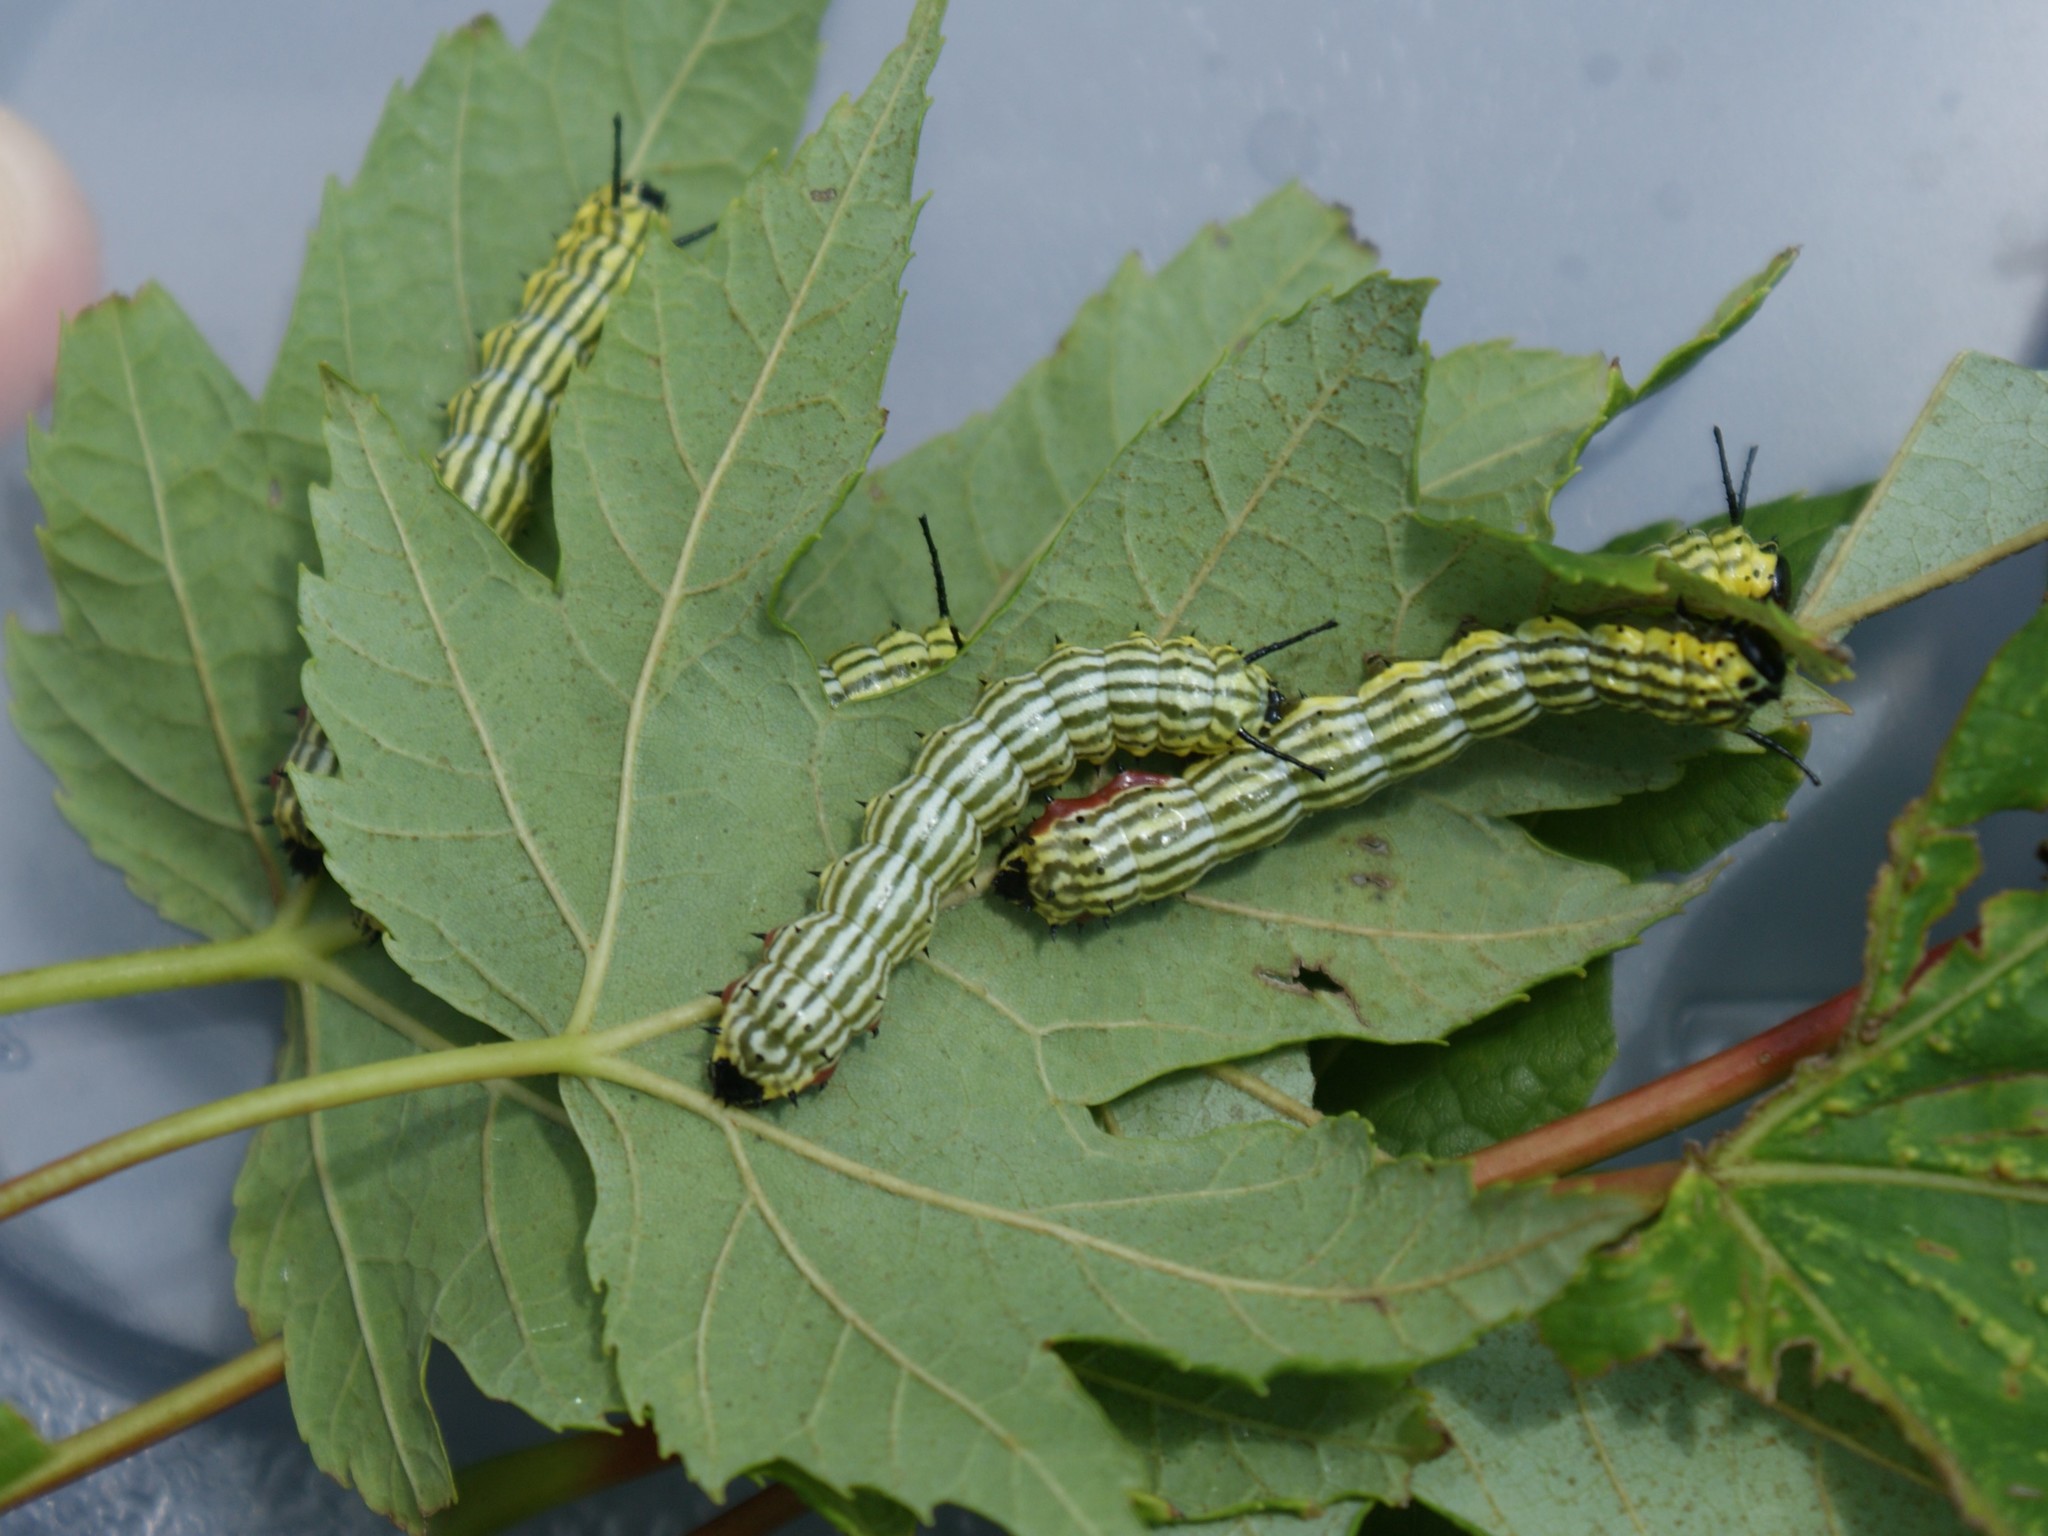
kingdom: Animalia
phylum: Arthropoda
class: Insecta
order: Lepidoptera
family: Saturniidae
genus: Dryocampa
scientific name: Dryocampa rubicunda
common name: Rosy maple moth
